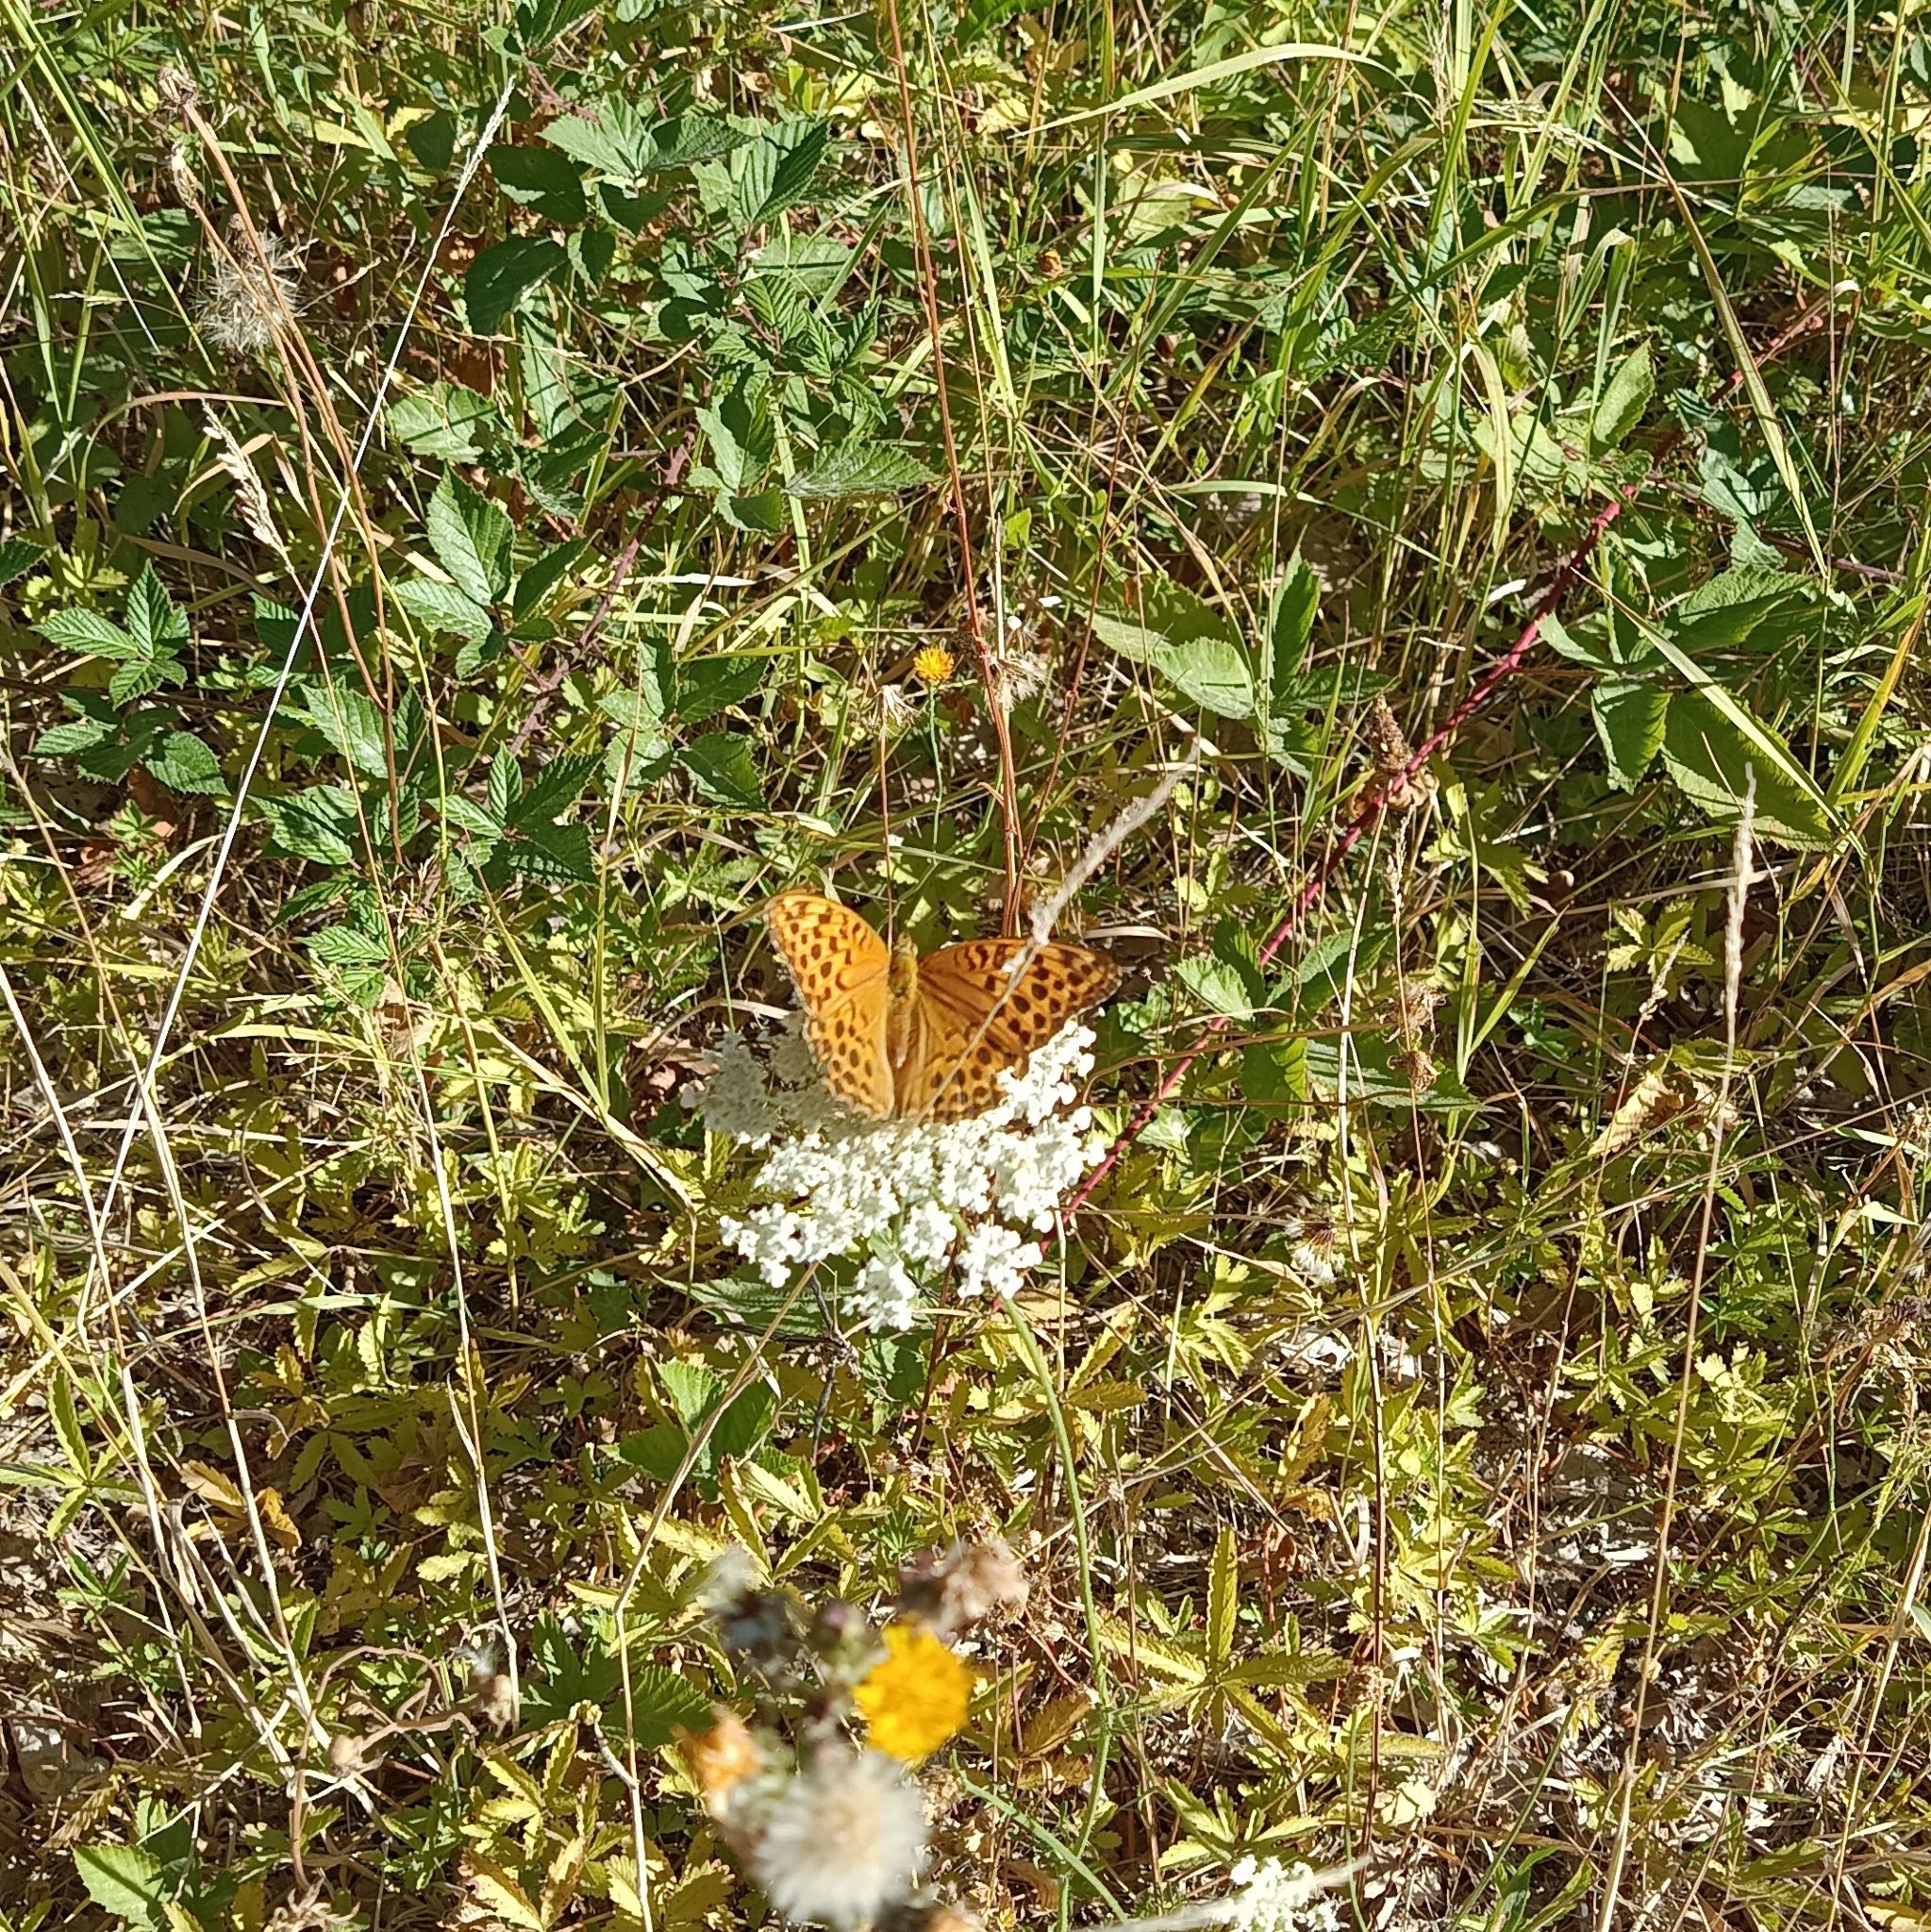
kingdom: Animalia
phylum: Arthropoda
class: Insecta
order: Lepidoptera
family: Nymphalidae
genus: Argynnis
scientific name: Argynnis paphia
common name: Silver-washed fritillary
